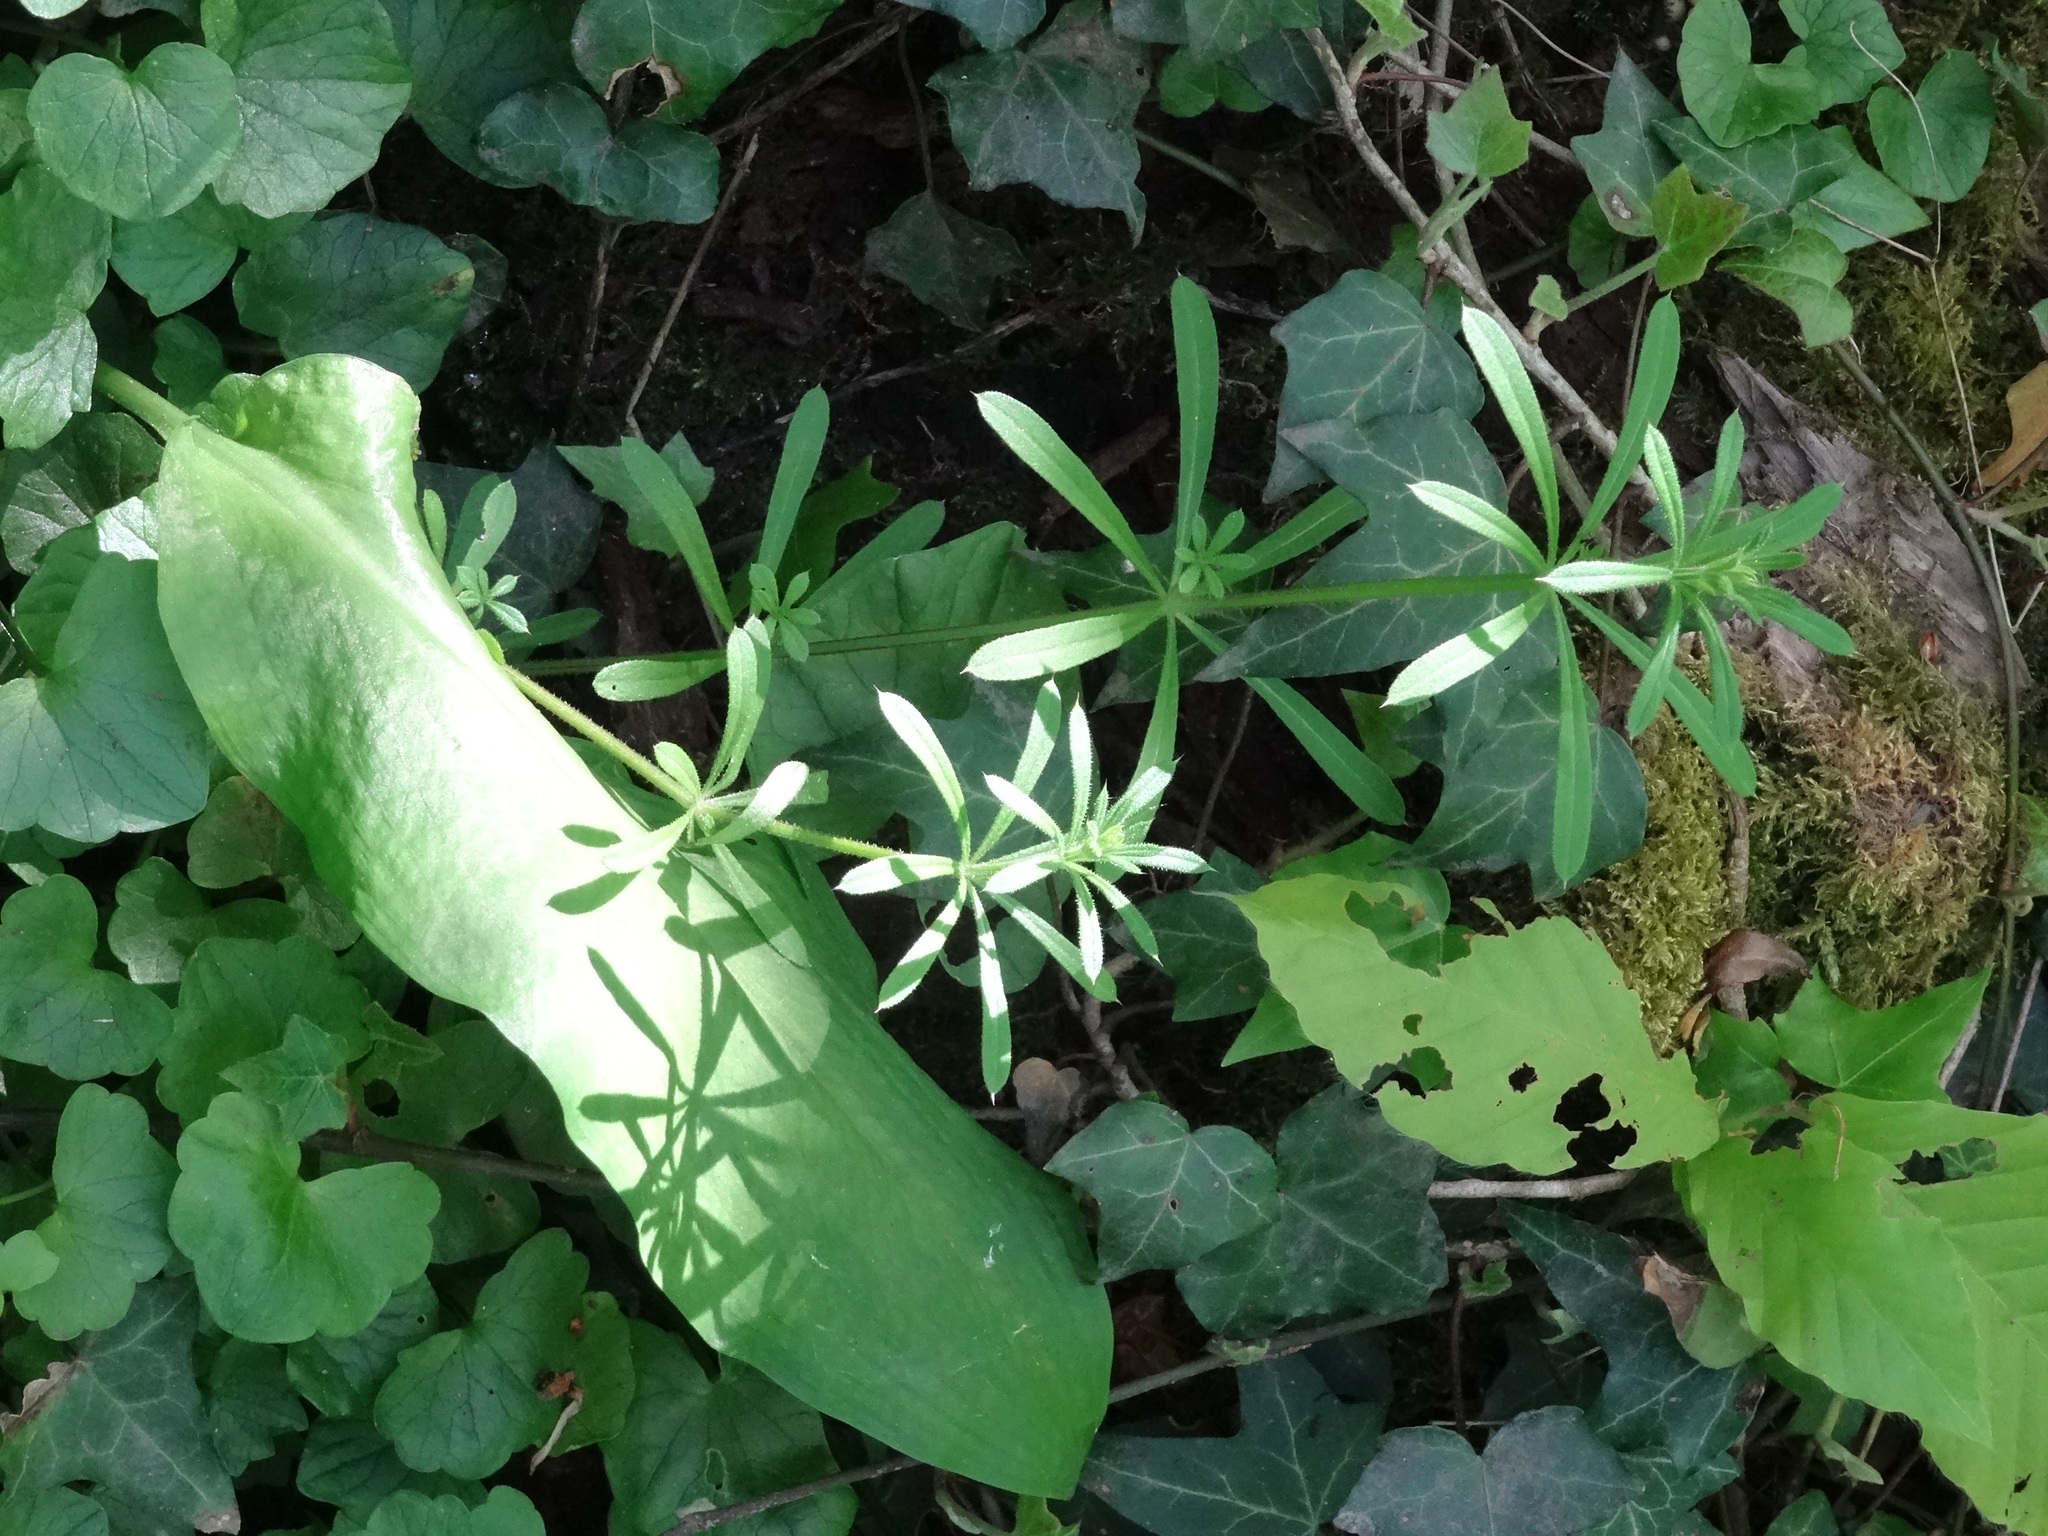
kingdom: Plantae
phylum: Tracheophyta
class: Magnoliopsida
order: Gentianales
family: Rubiaceae
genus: Galium
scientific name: Galium aparine
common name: Cleavers
